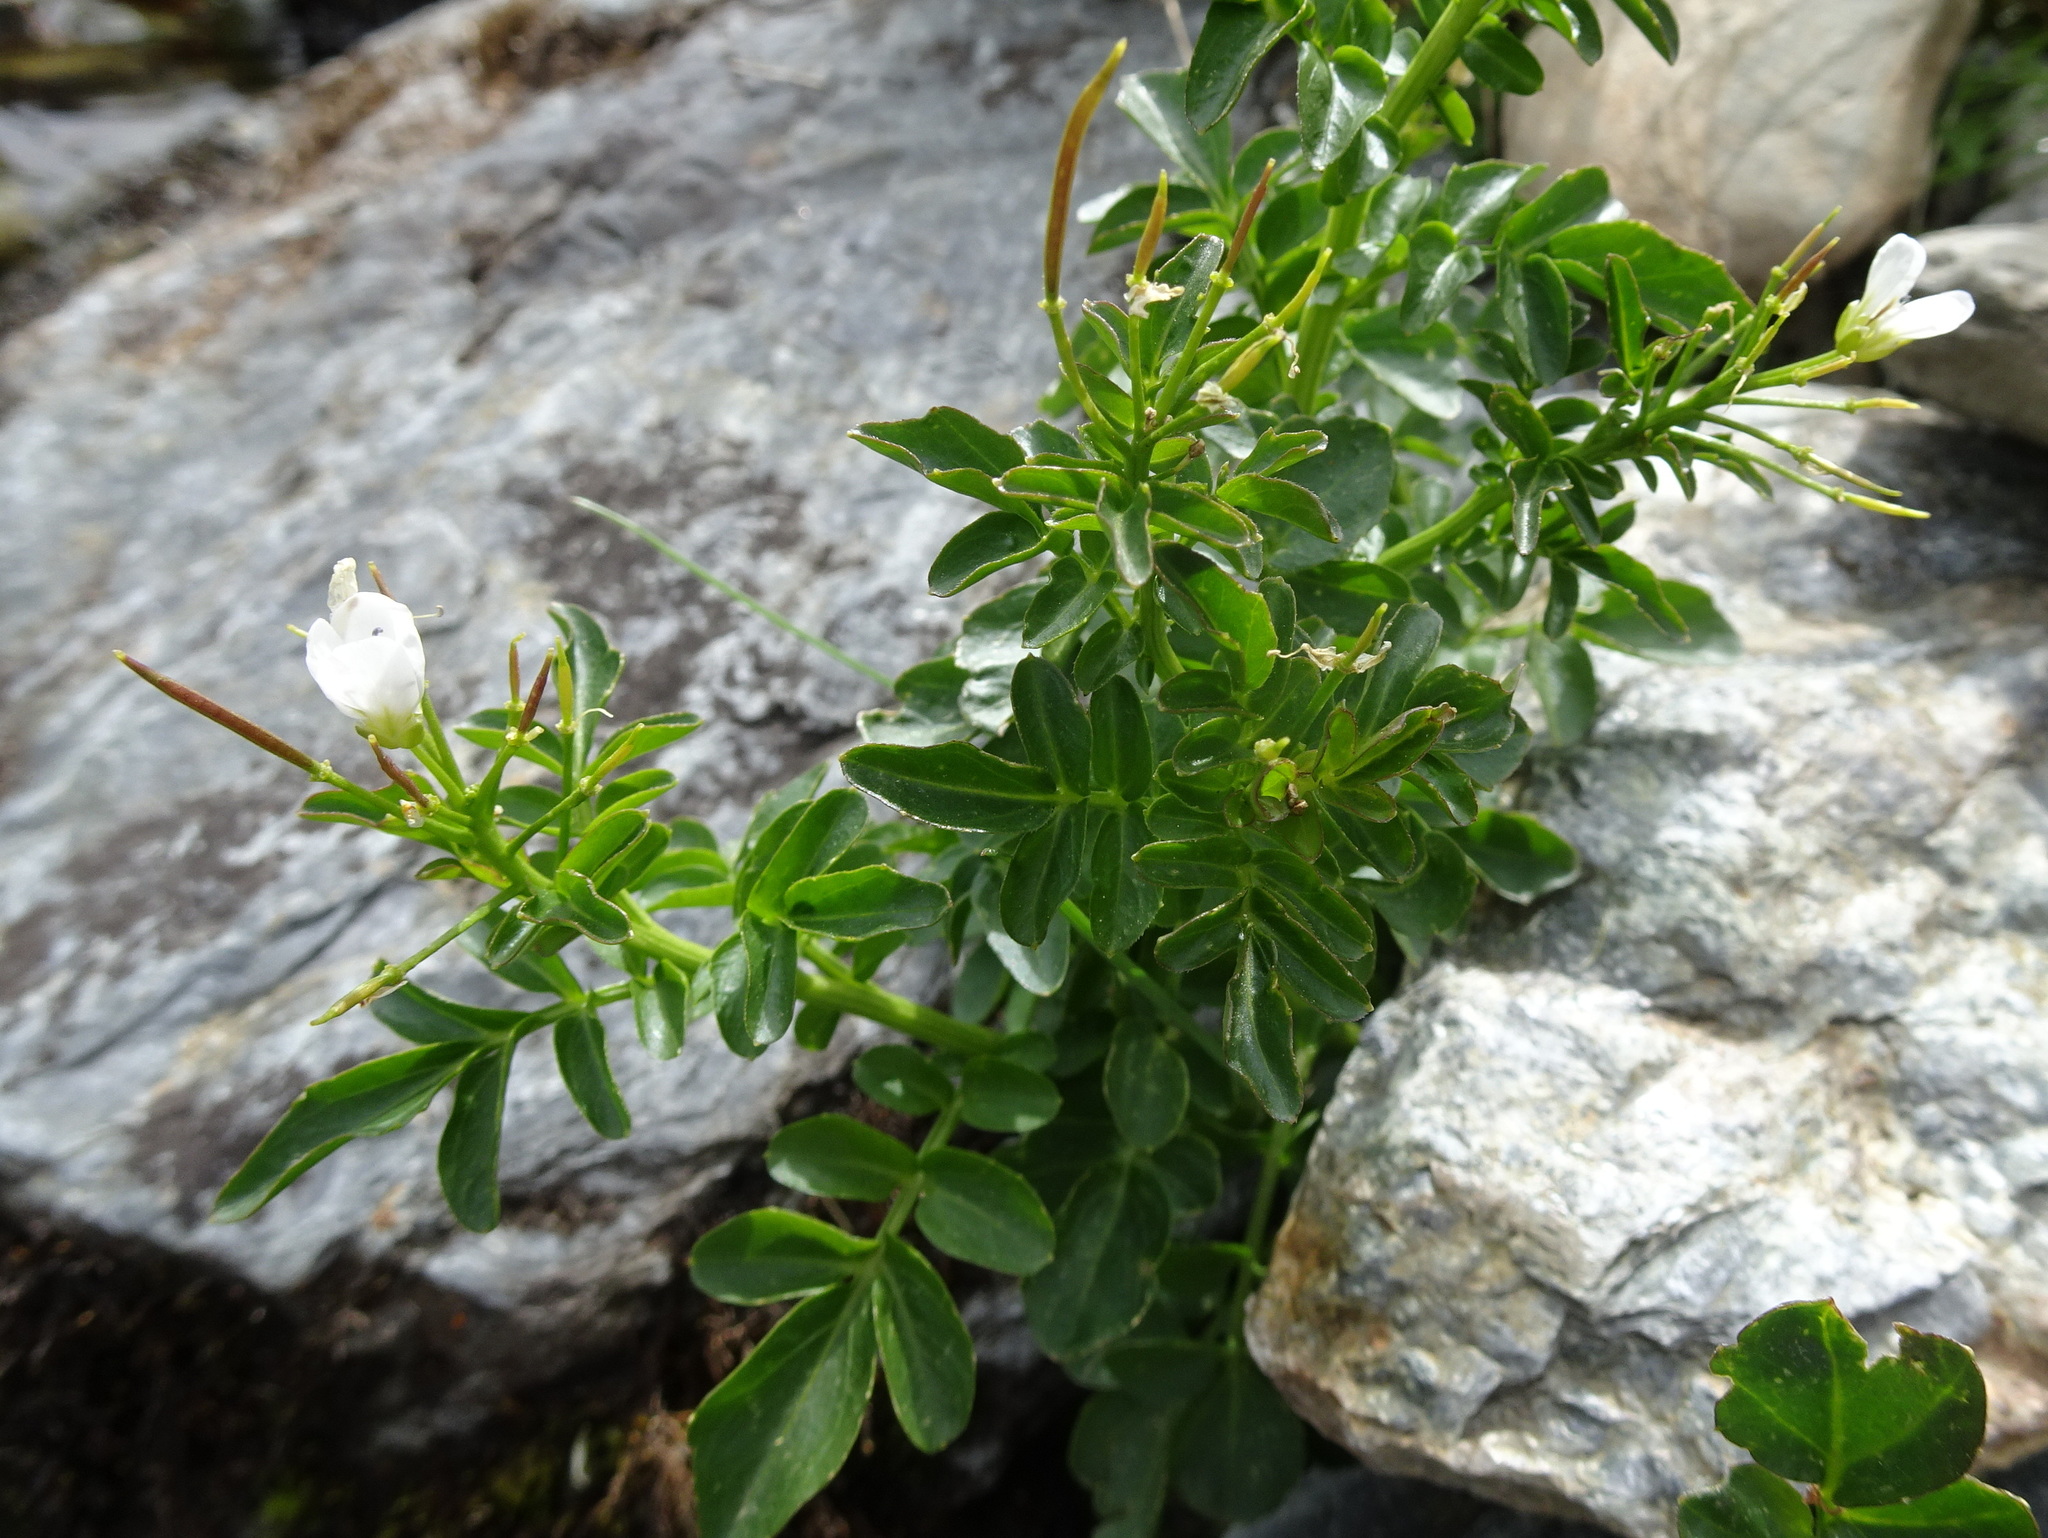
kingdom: Plantae
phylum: Tracheophyta
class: Magnoliopsida
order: Brassicales
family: Brassicaceae
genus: Cardamine
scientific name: Cardamine amara
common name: Large bitter-cress
